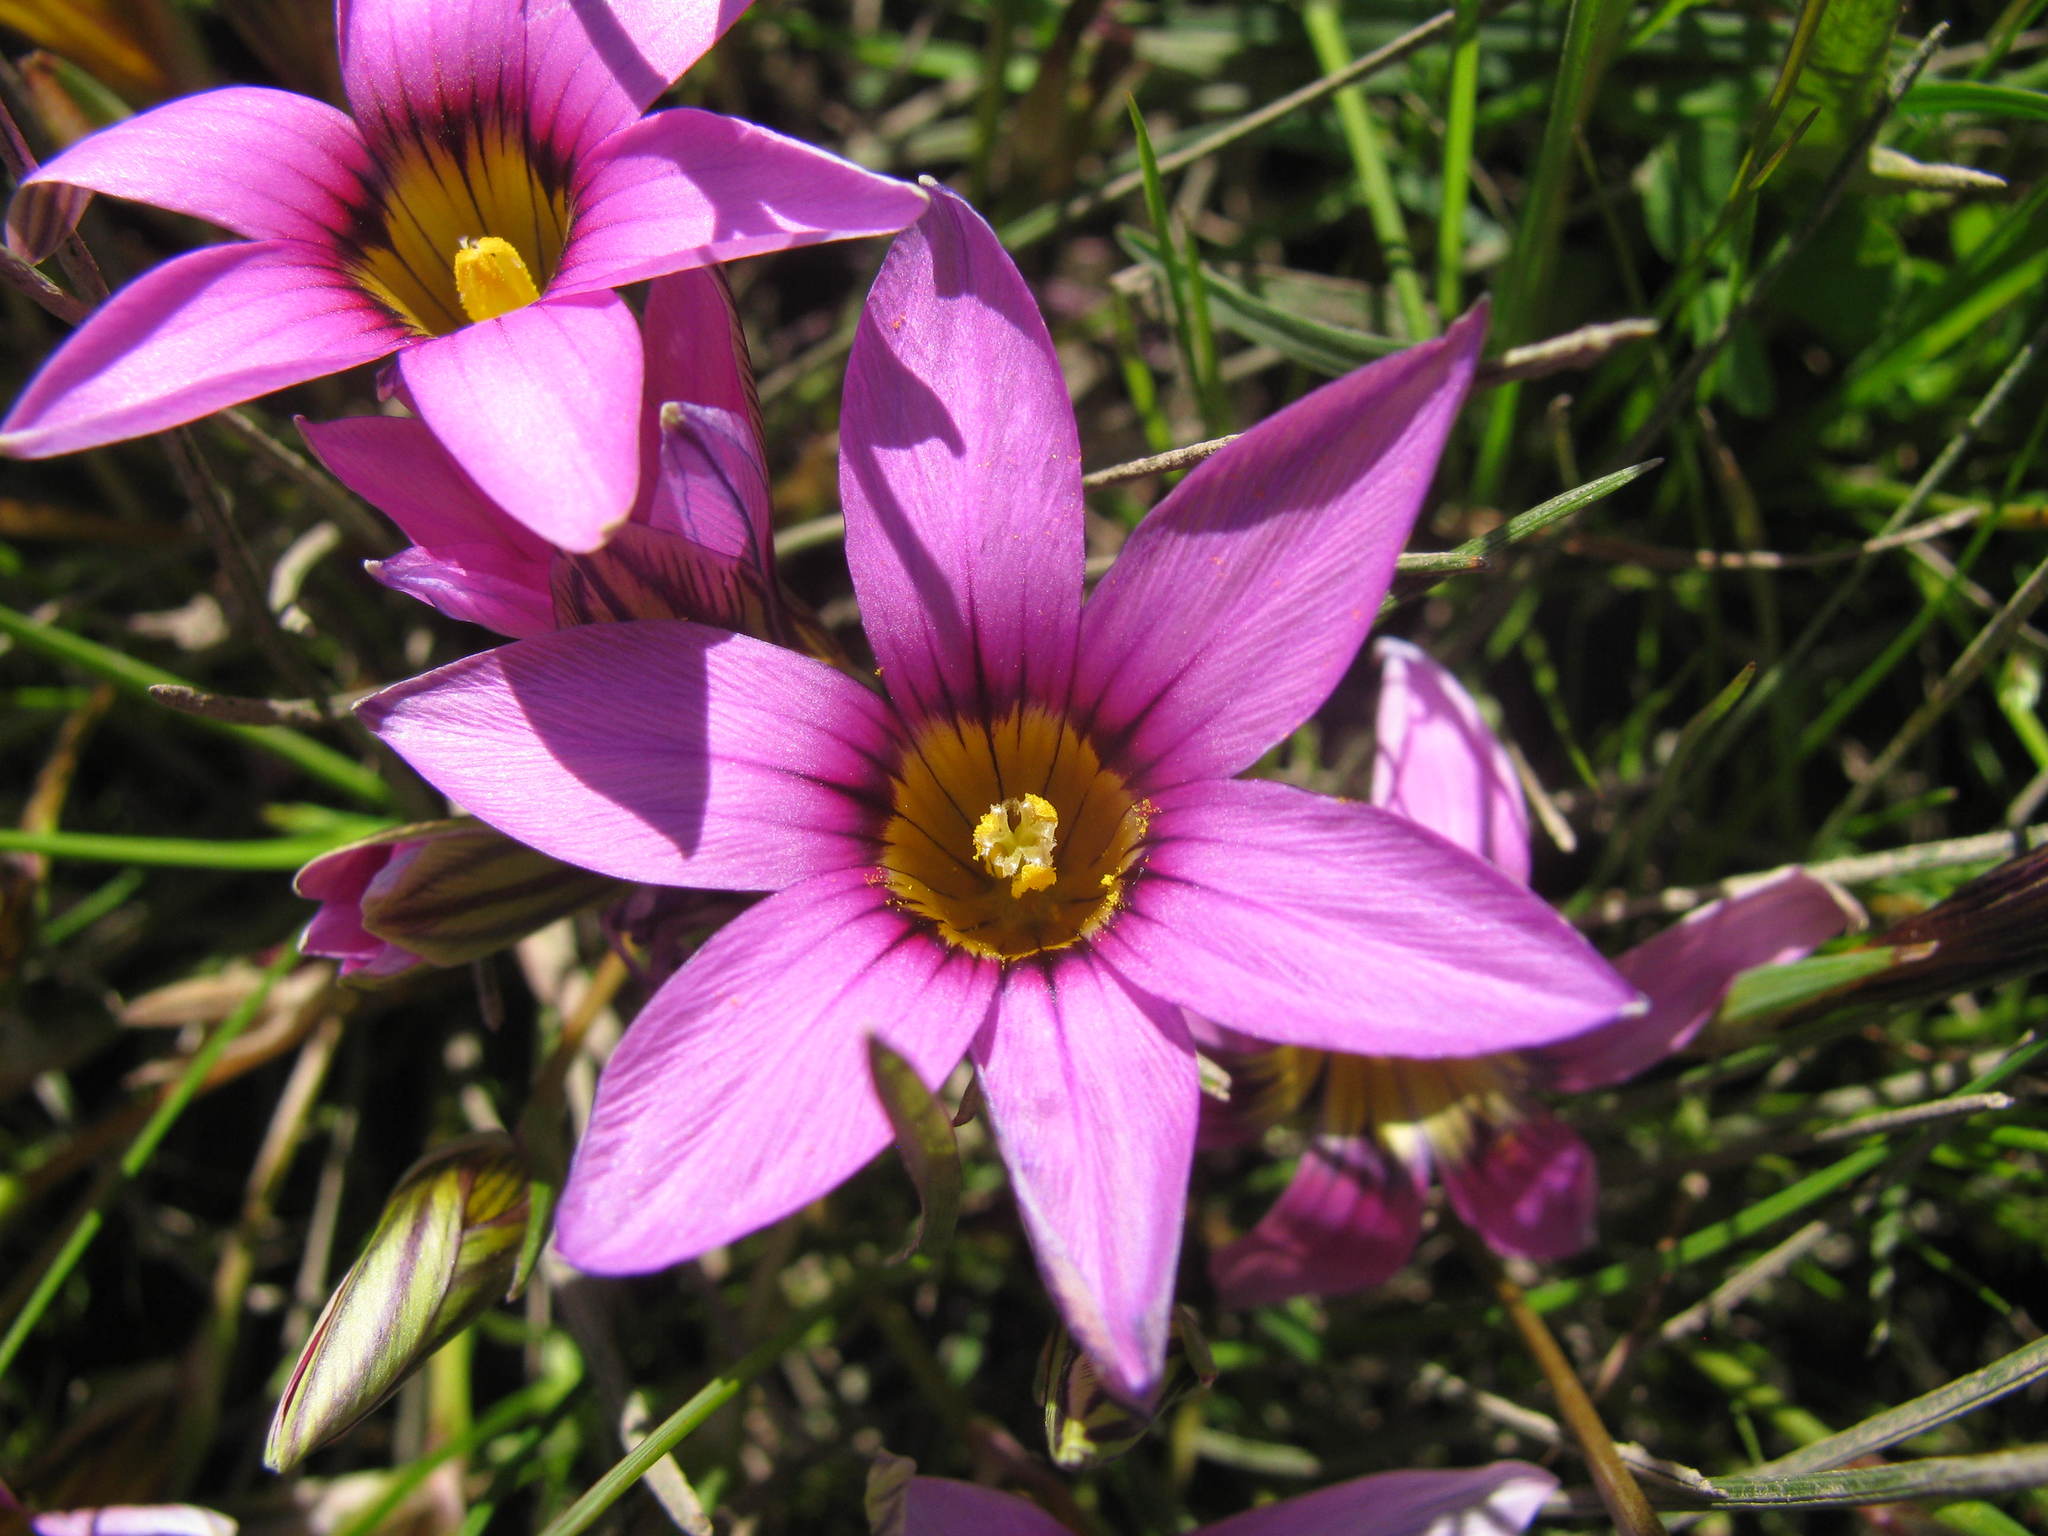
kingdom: Plantae
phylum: Tracheophyta
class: Liliopsida
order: Asparagales
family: Iridaceae
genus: Romulea
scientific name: Romulea cruciata
